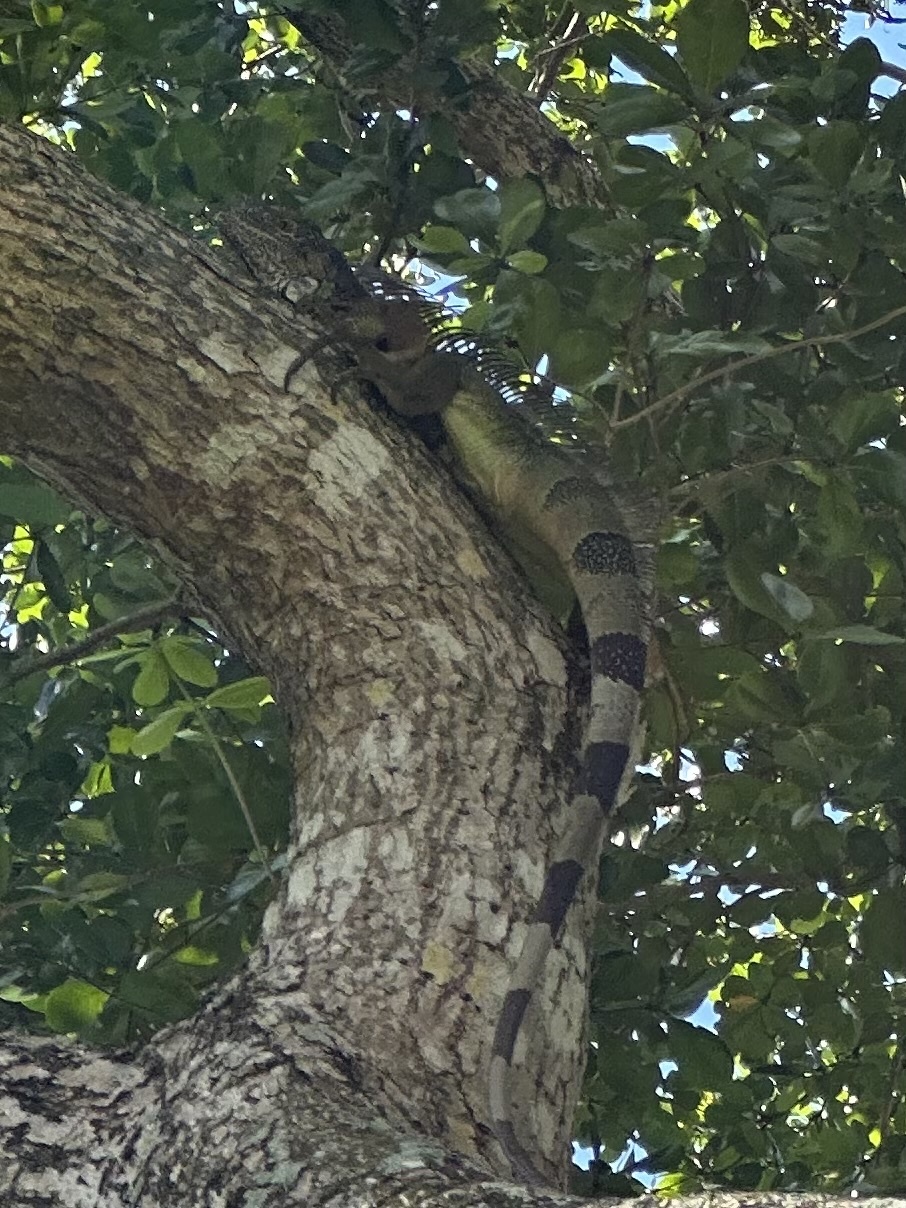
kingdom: Animalia
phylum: Chordata
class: Squamata
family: Iguanidae
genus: Iguana
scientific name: Iguana iguana
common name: Green iguana
